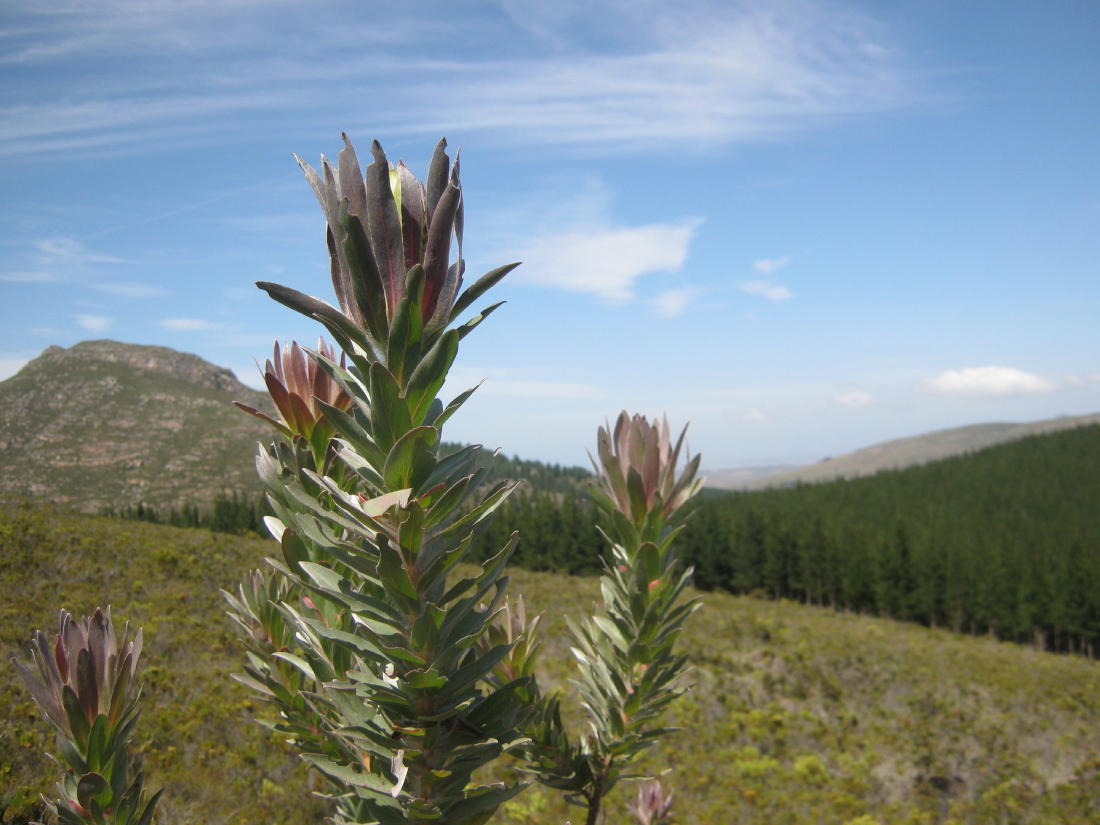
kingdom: Plantae
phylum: Tracheophyta
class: Magnoliopsida
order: Proteales
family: Proteaceae
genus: Protea
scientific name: Protea coronata
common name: Green sugarbush
